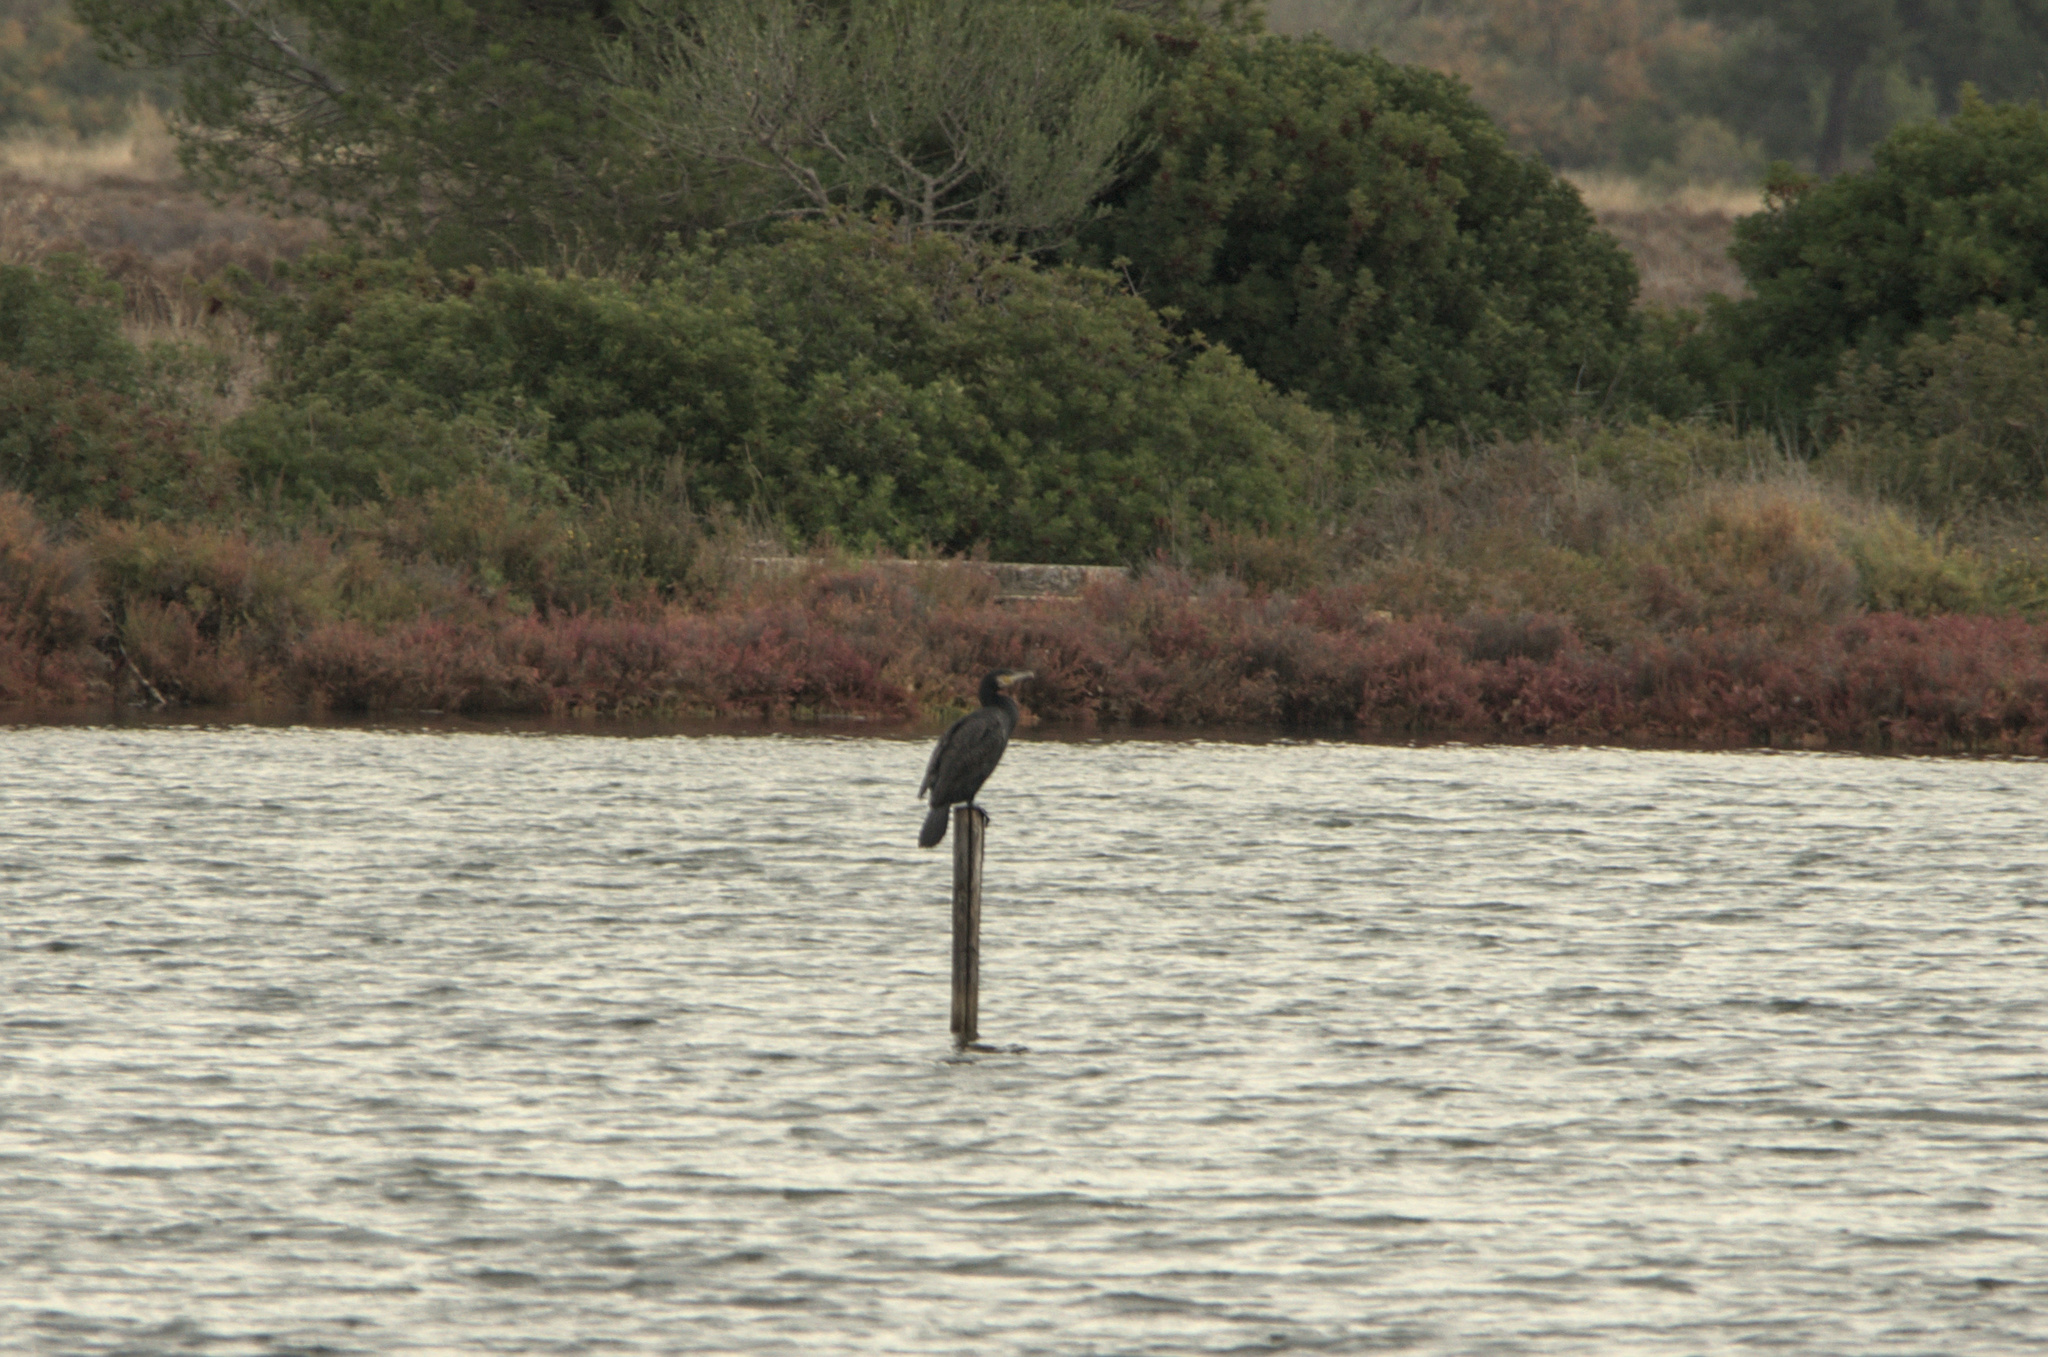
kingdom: Animalia
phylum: Chordata
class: Aves
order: Suliformes
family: Phalacrocoracidae
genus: Phalacrocorax
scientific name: Phalacrocorax carbo
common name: Great cormorant
